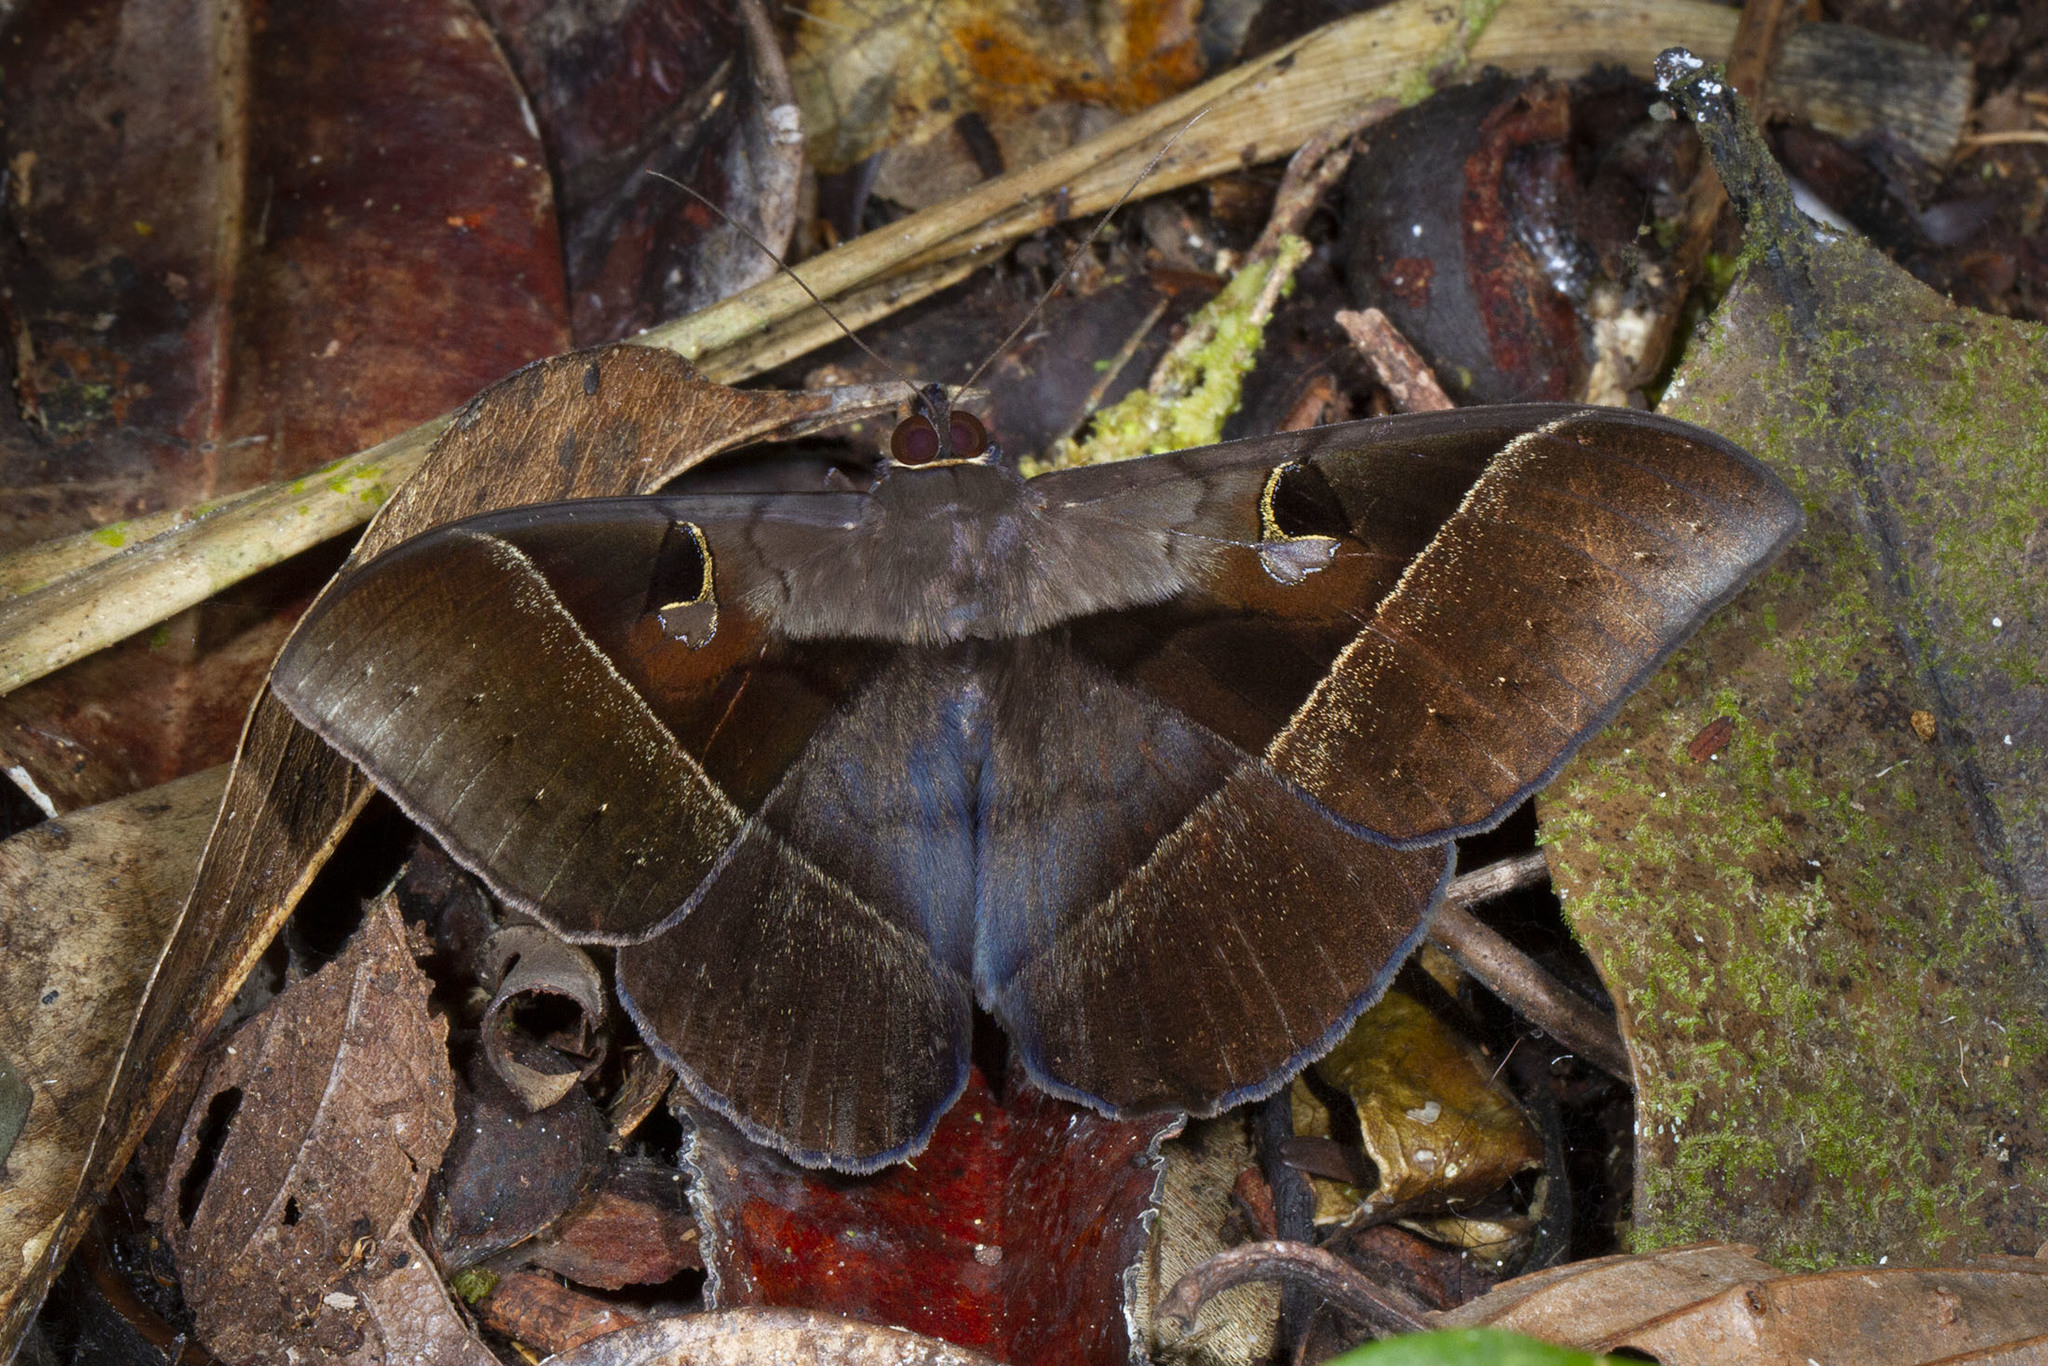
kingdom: Animalia
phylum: Arthropoda
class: Insecta
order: Lepidoptera
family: Erebidae
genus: Cyligramma
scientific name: Cyligramma joa
